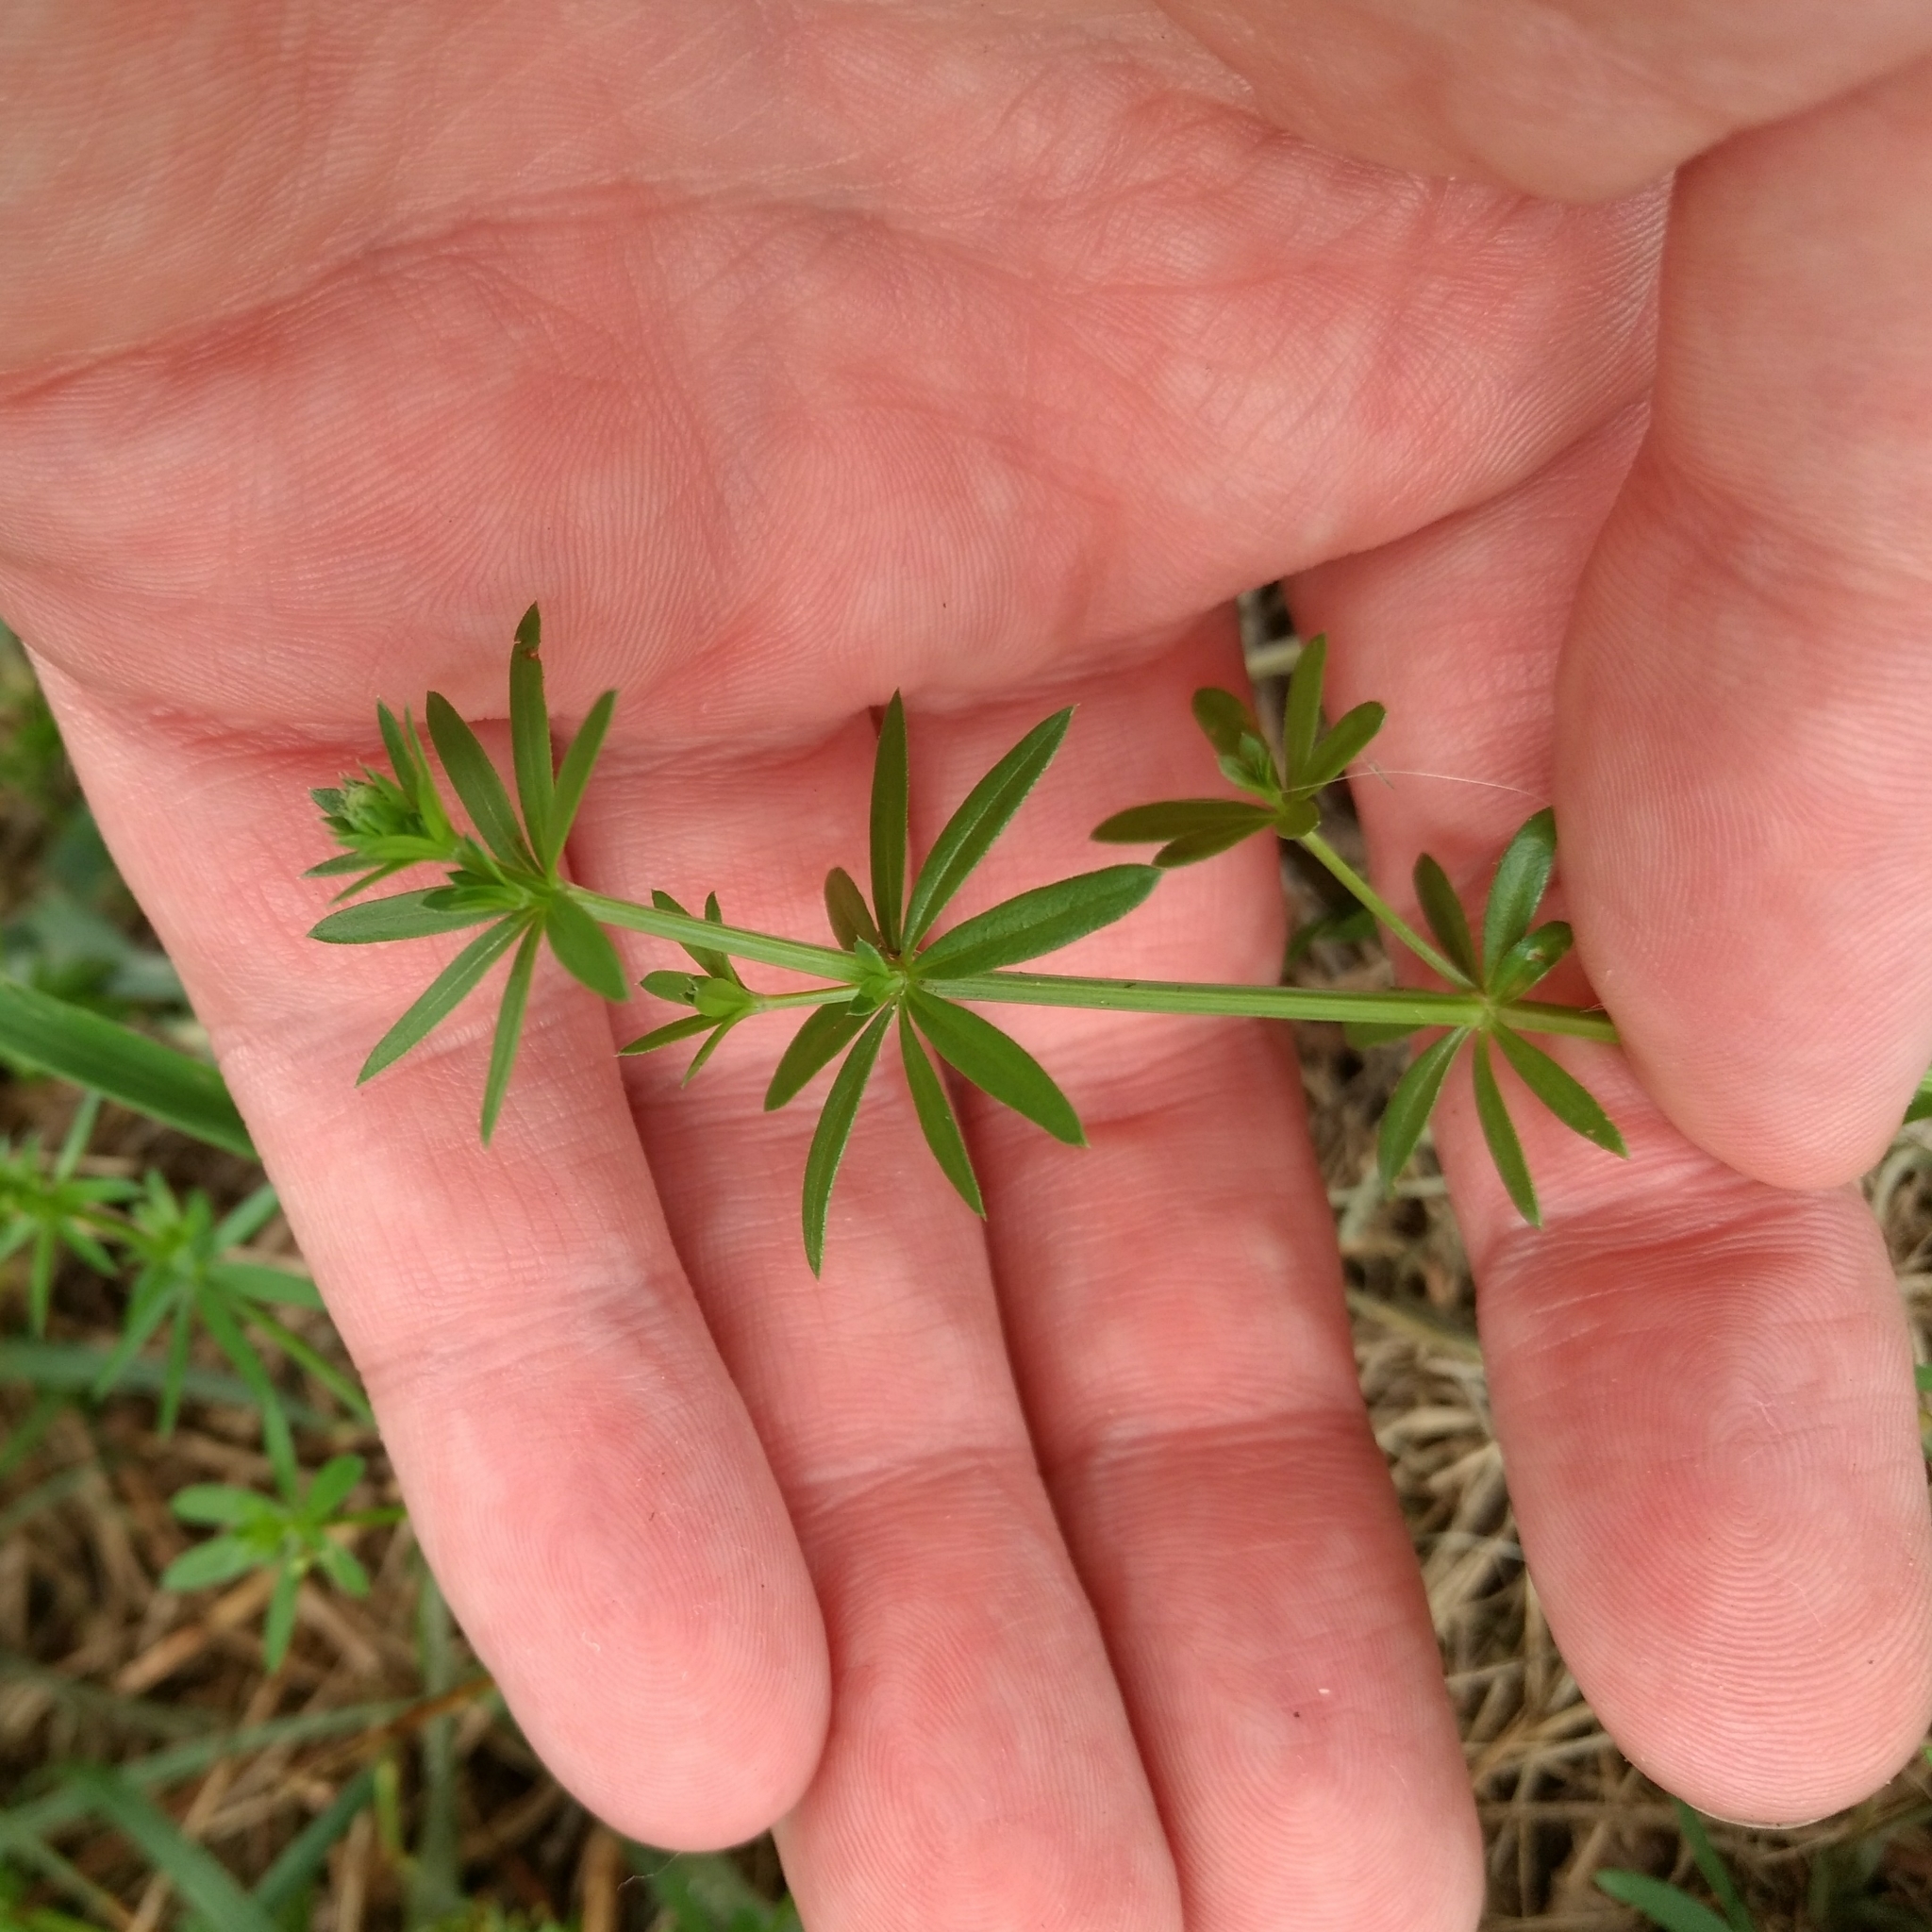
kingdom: Plantae
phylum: Tracheophyta
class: Magnoliopsida
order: Gentianales
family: Rubiaceae
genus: Galium
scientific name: Galium mollugo
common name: Hedge bedstraw
